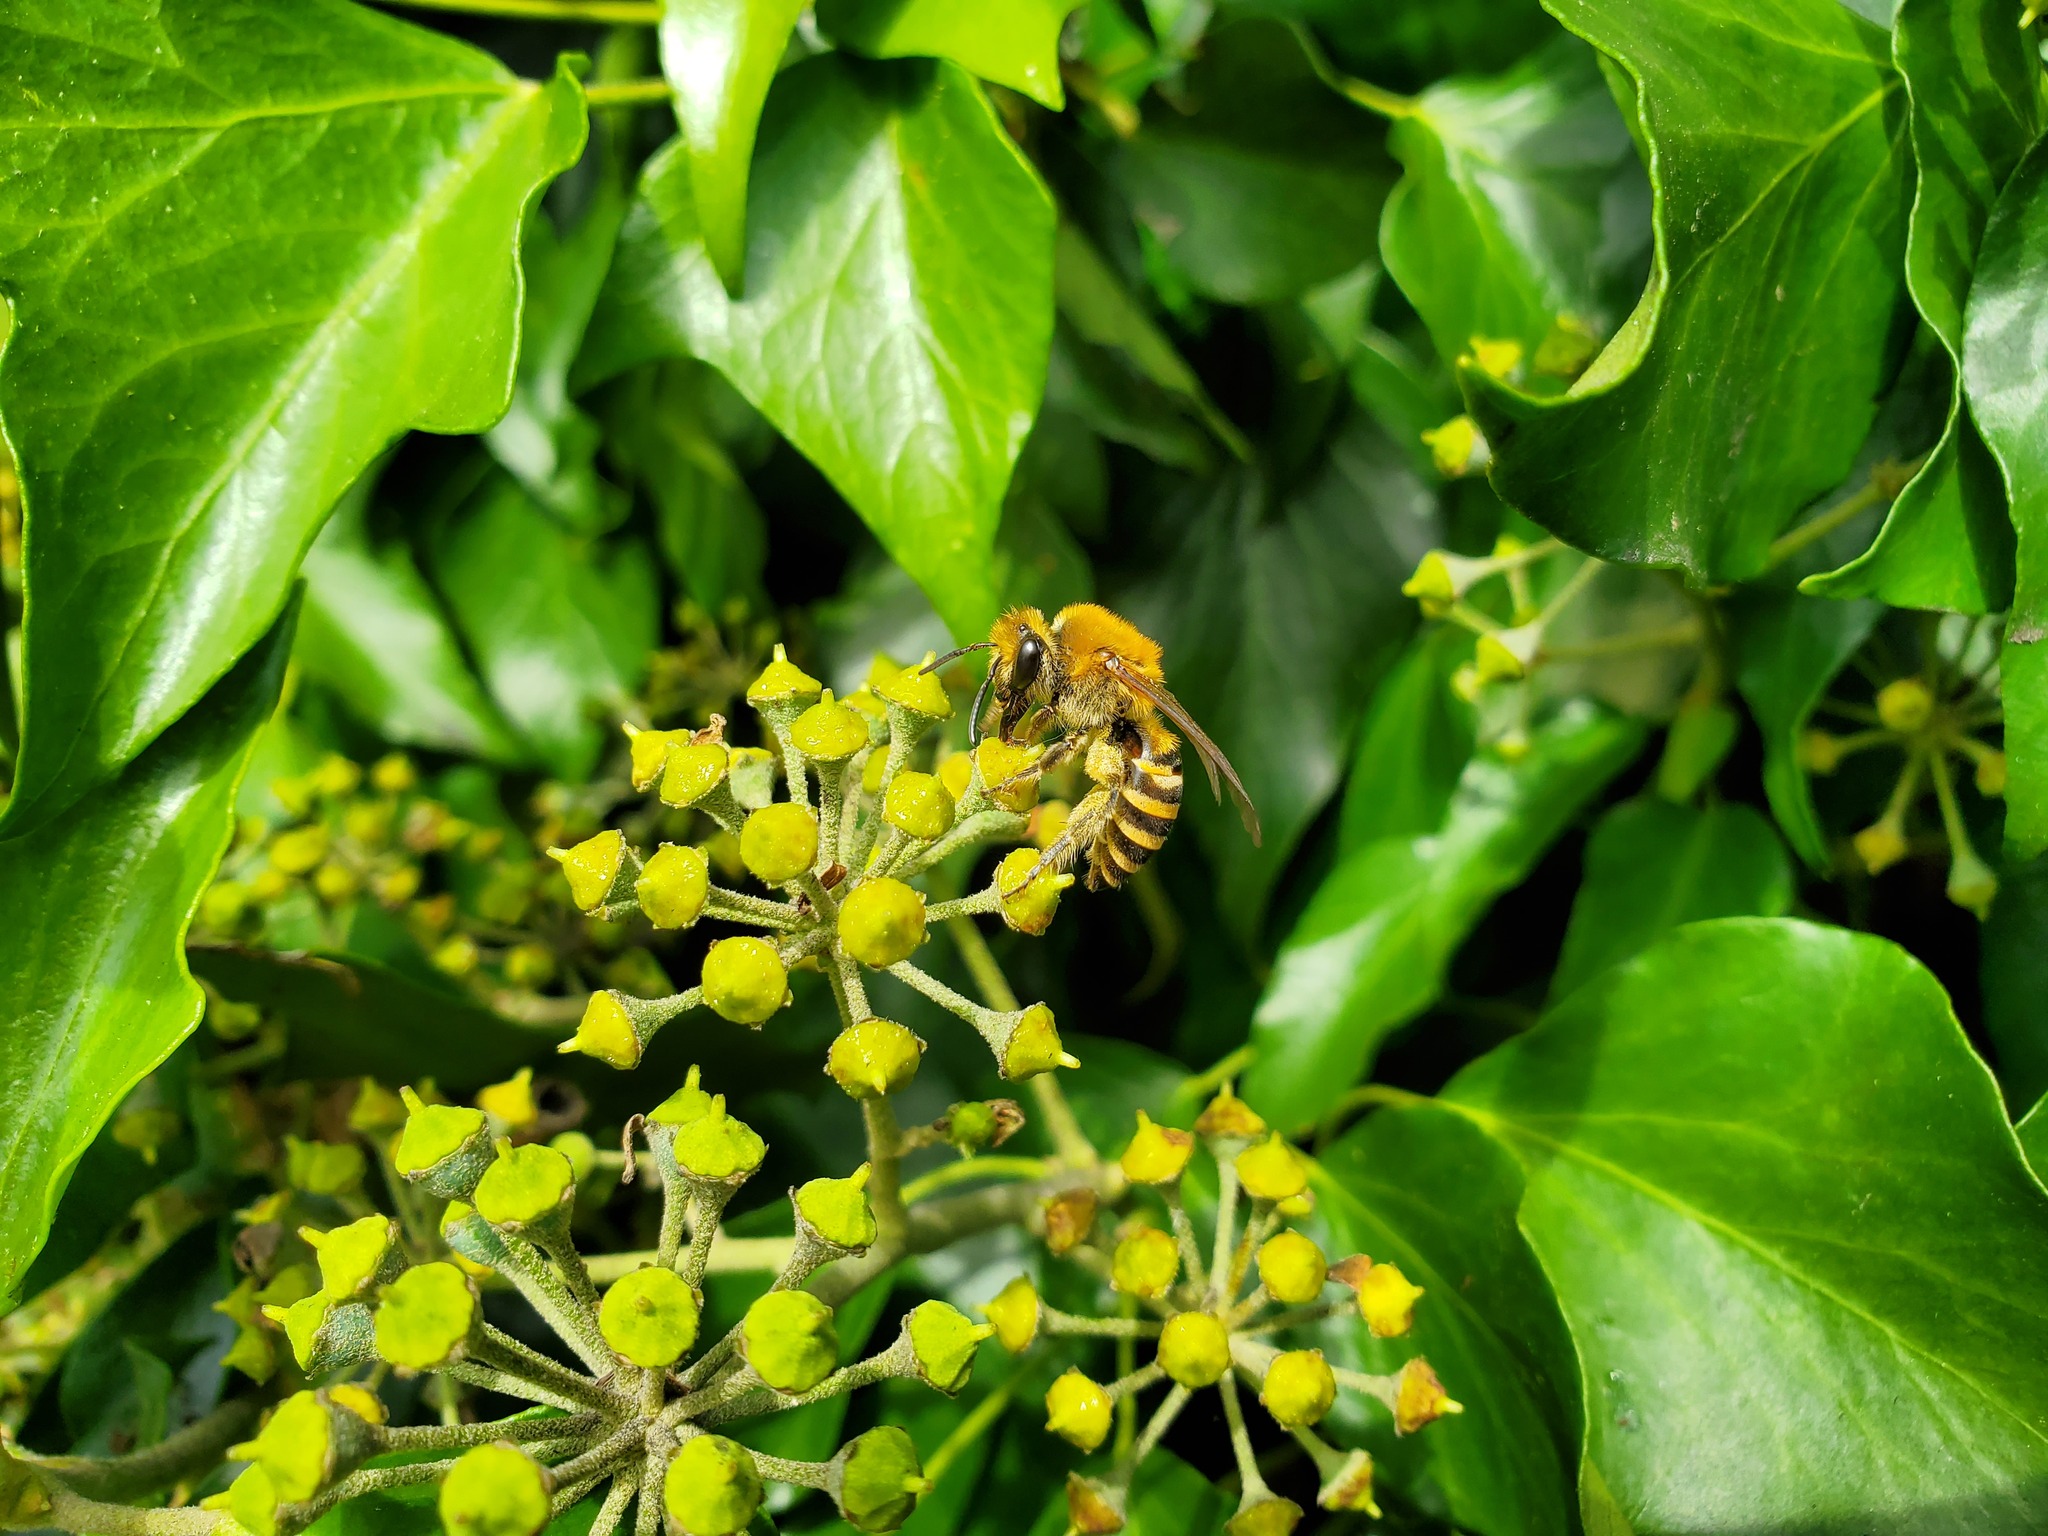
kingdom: Animalia
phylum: Arthropoda
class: Insecta
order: Hymenoptera
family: Colletidae
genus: Colletes
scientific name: Colletes hederae
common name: Ivy bee
